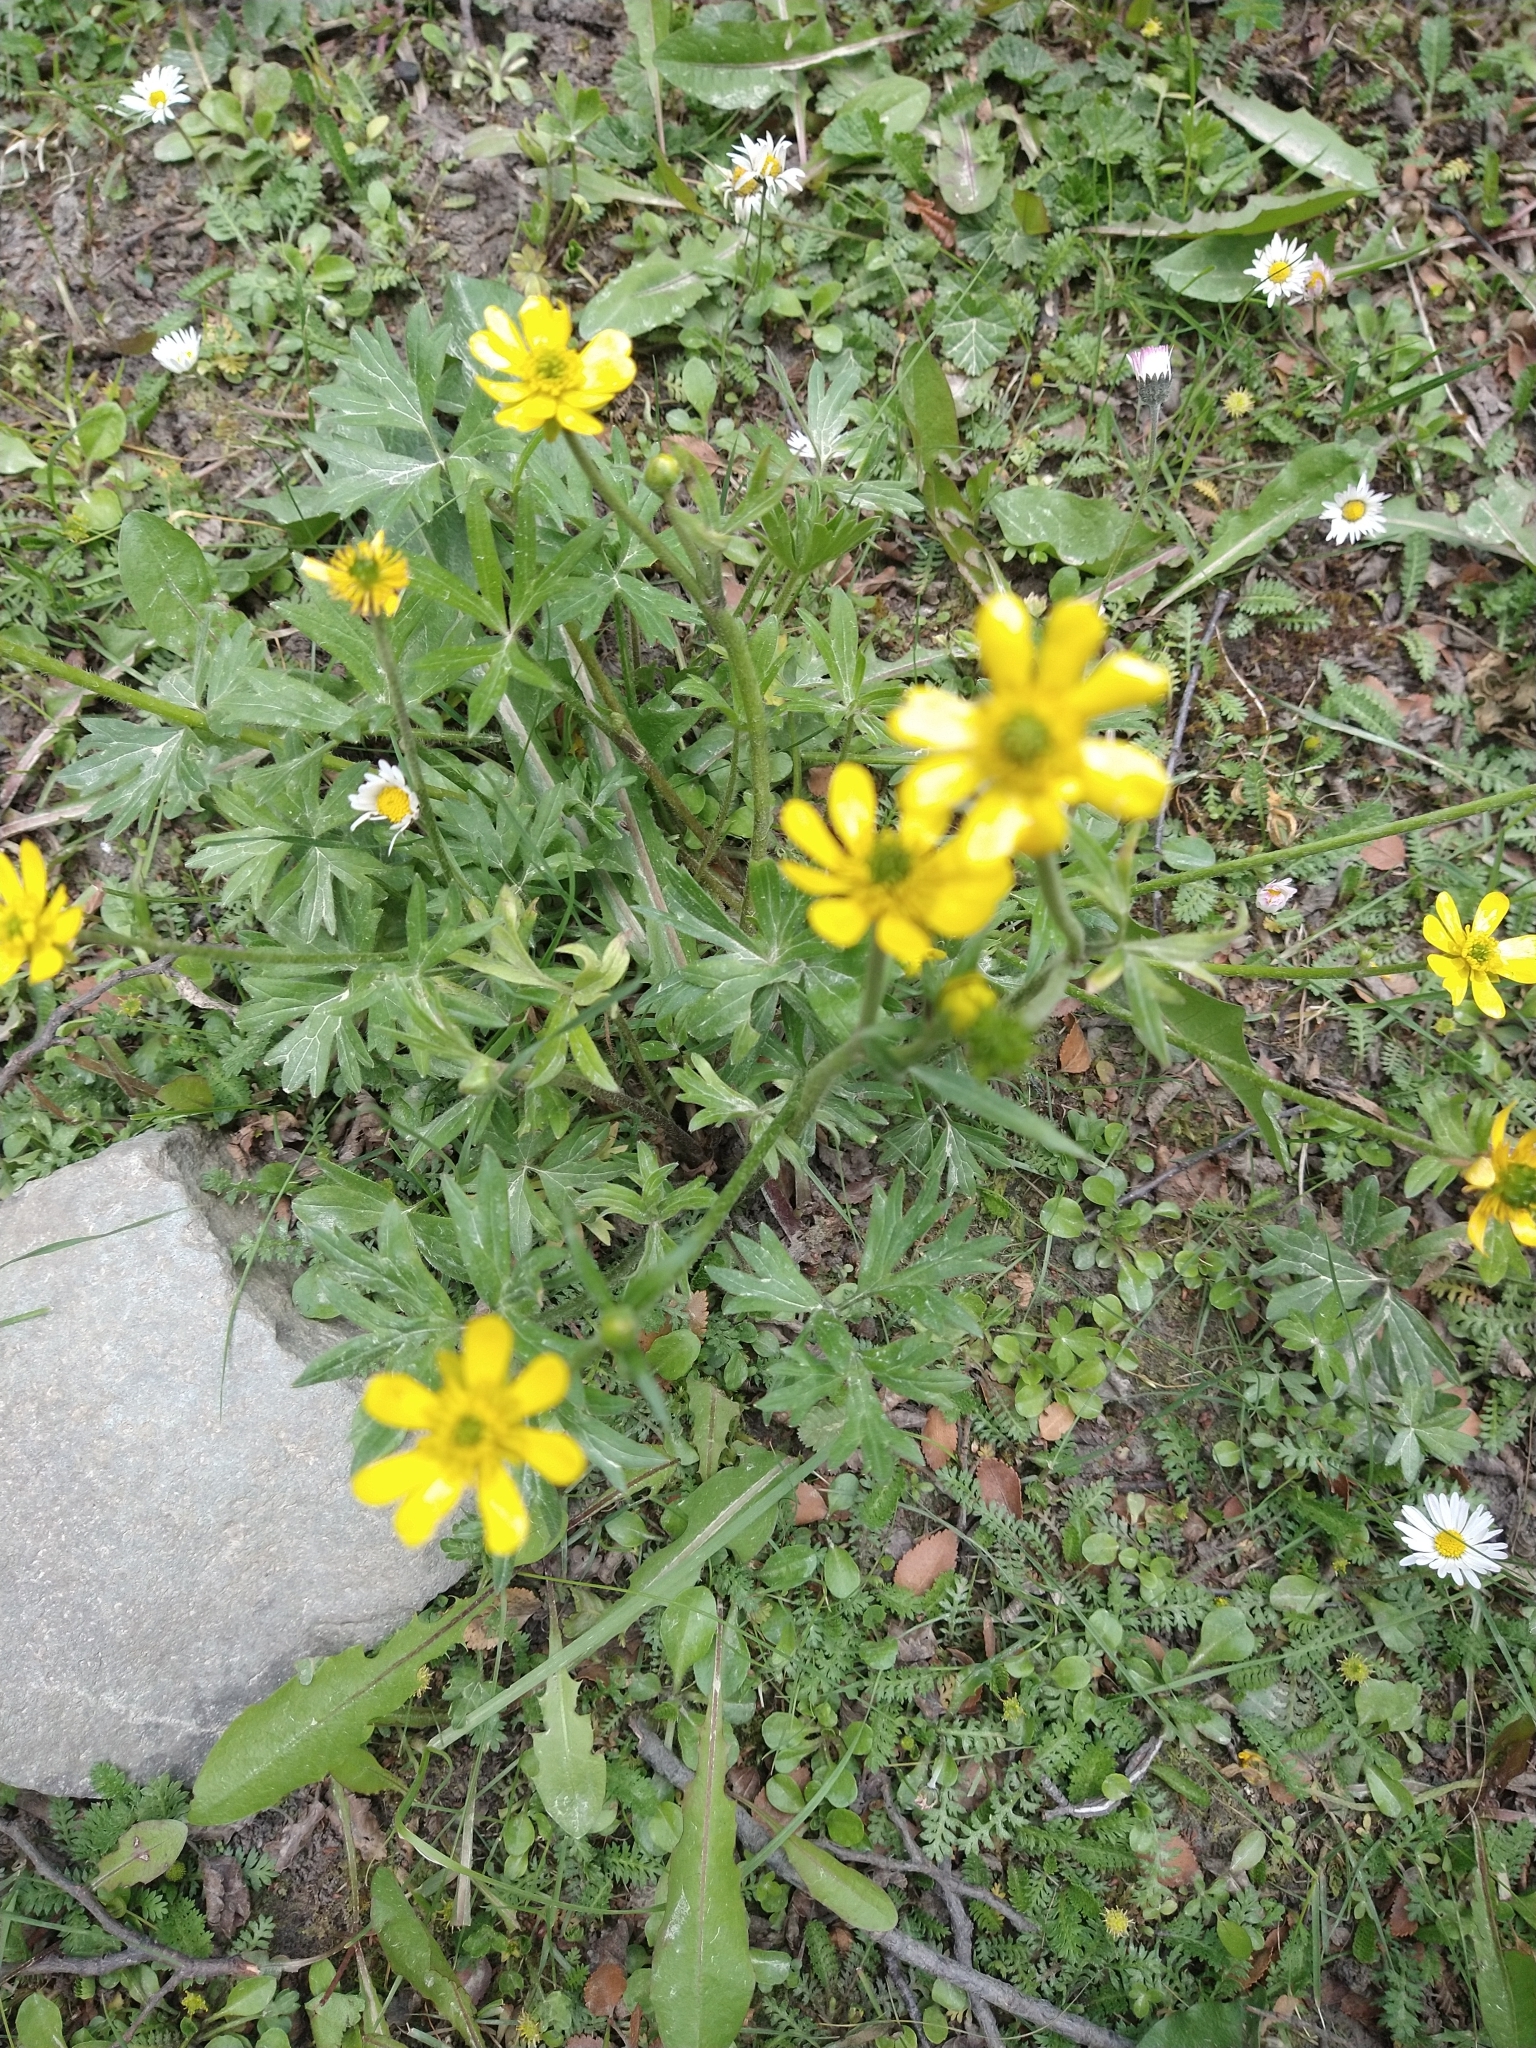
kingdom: Plantae
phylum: Tracheophyta
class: Magnoliopsida
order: Ranunculales
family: Ranunculaceae
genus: Ranunculus
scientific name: Ranunculus peduncularis
